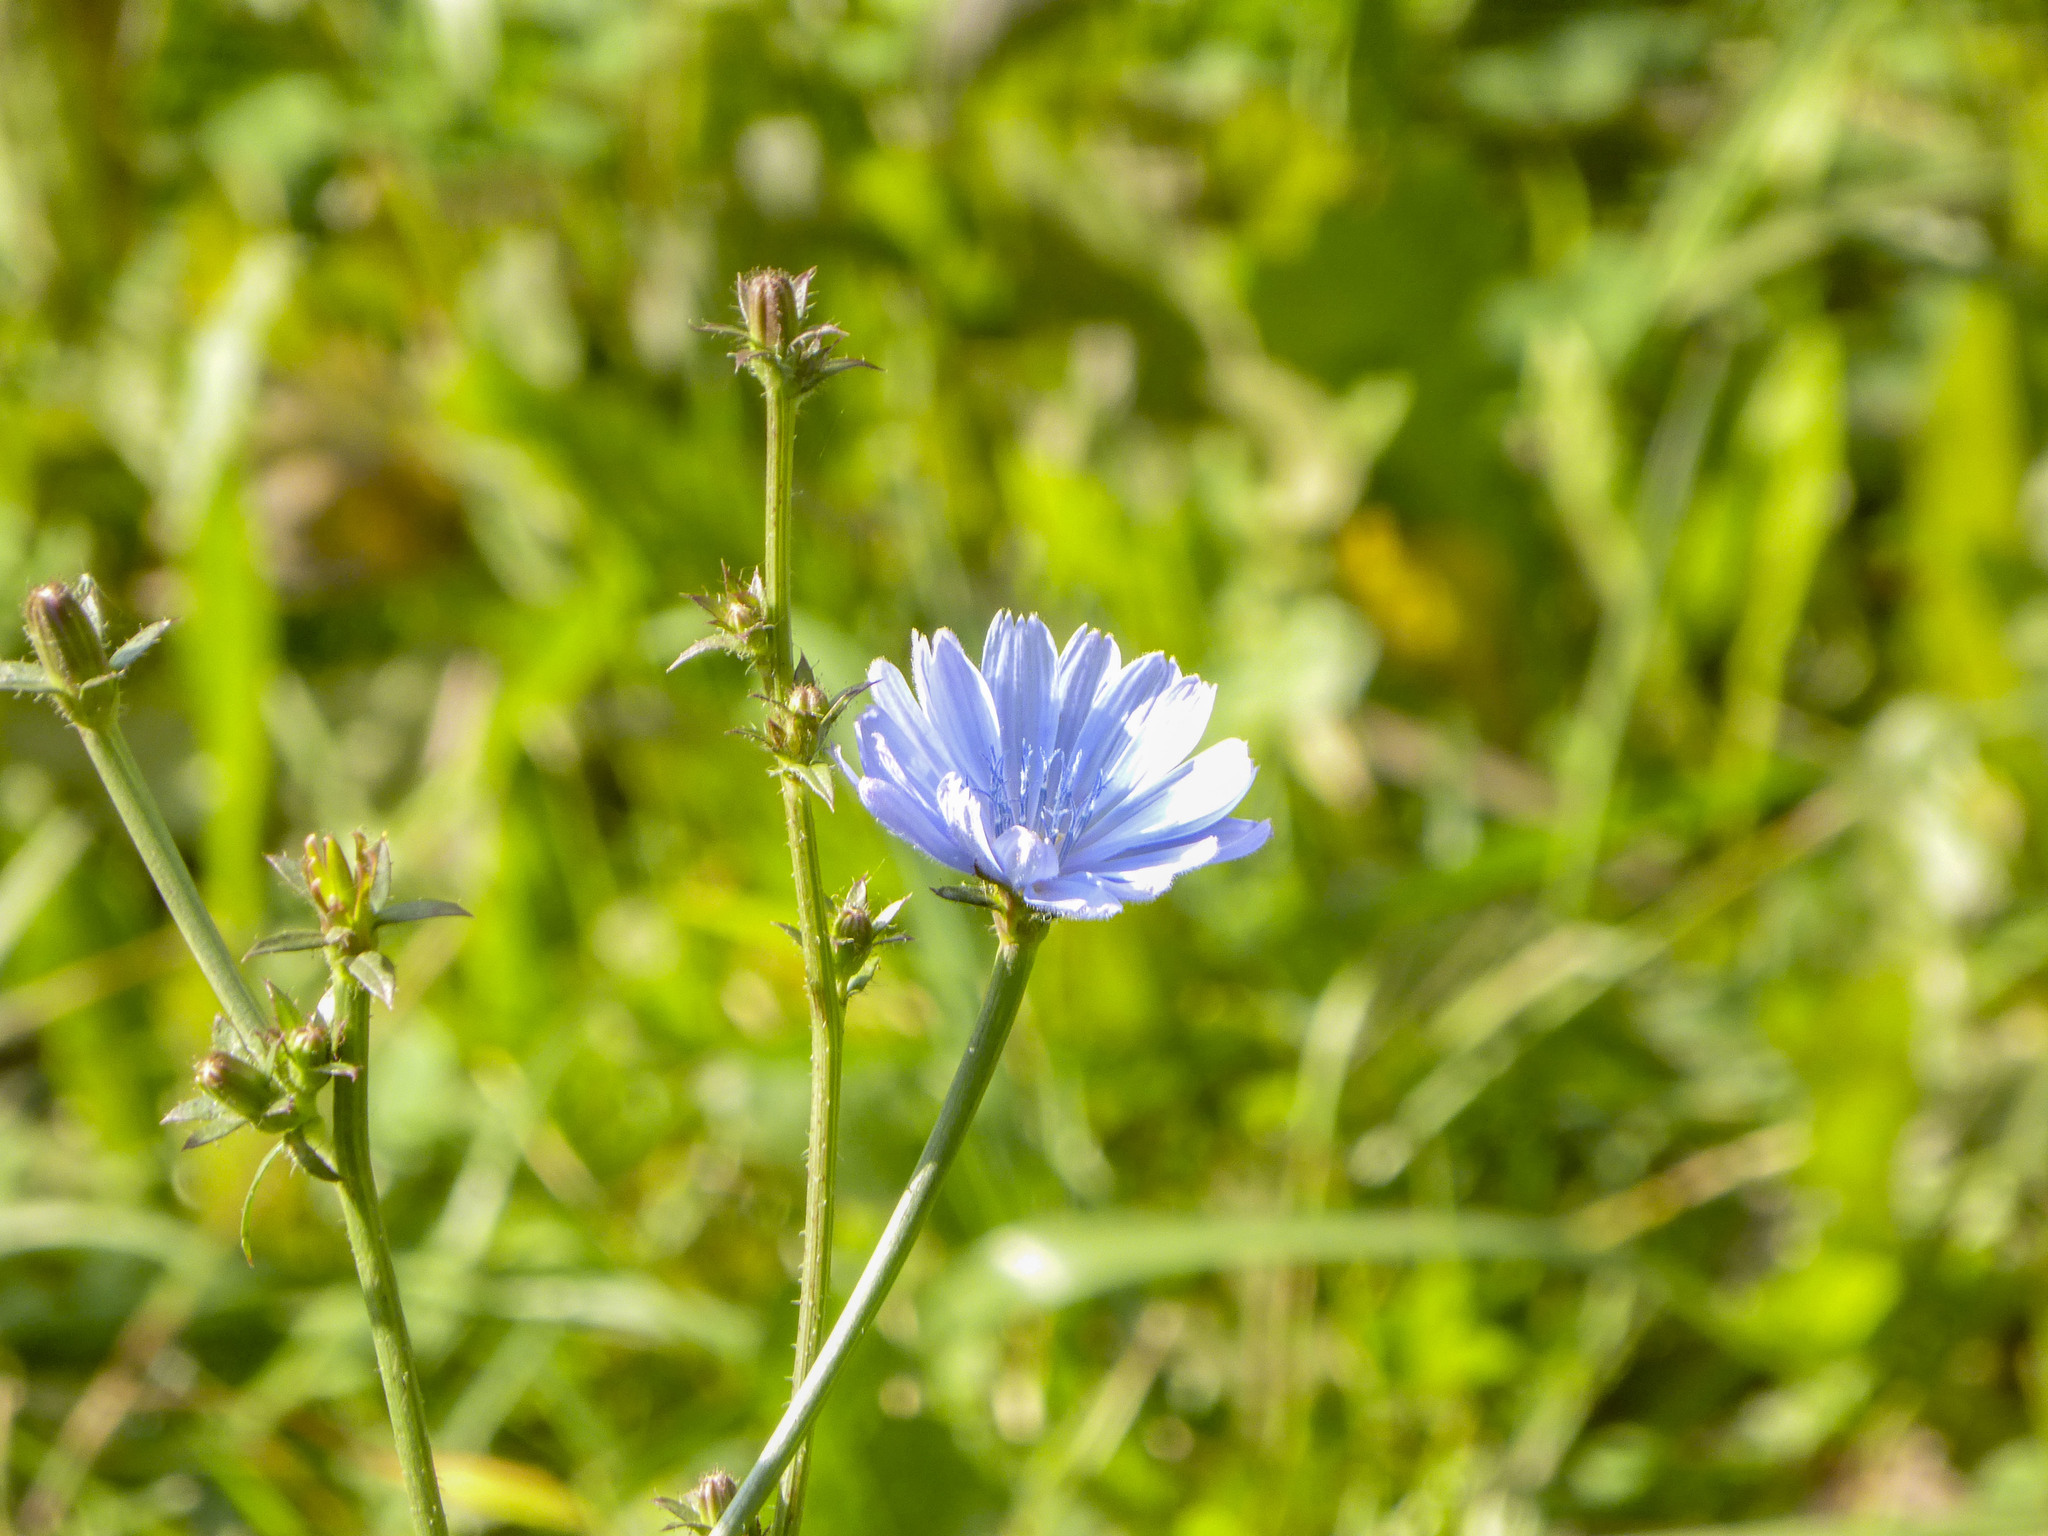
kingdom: Plantae
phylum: Tracheophyta
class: Magnoliopsida
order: Asterales
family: Asteraceae
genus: Cichorium
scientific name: Cichorium intybus
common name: Chicory
